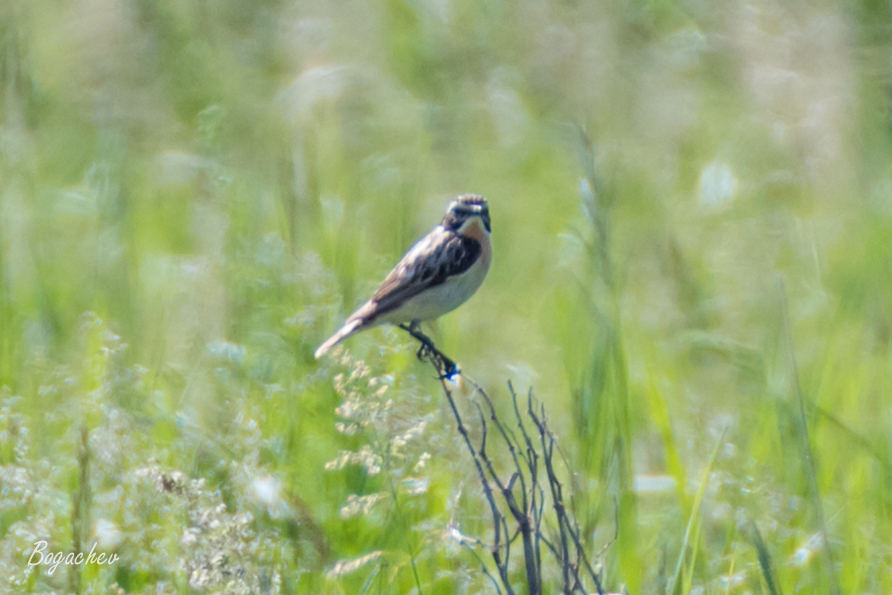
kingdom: Animalia
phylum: Chordata
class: Aves
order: Passeriformes
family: Muscicapidae
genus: Saxicola
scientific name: Saxicola rubetra
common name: Whinchat
